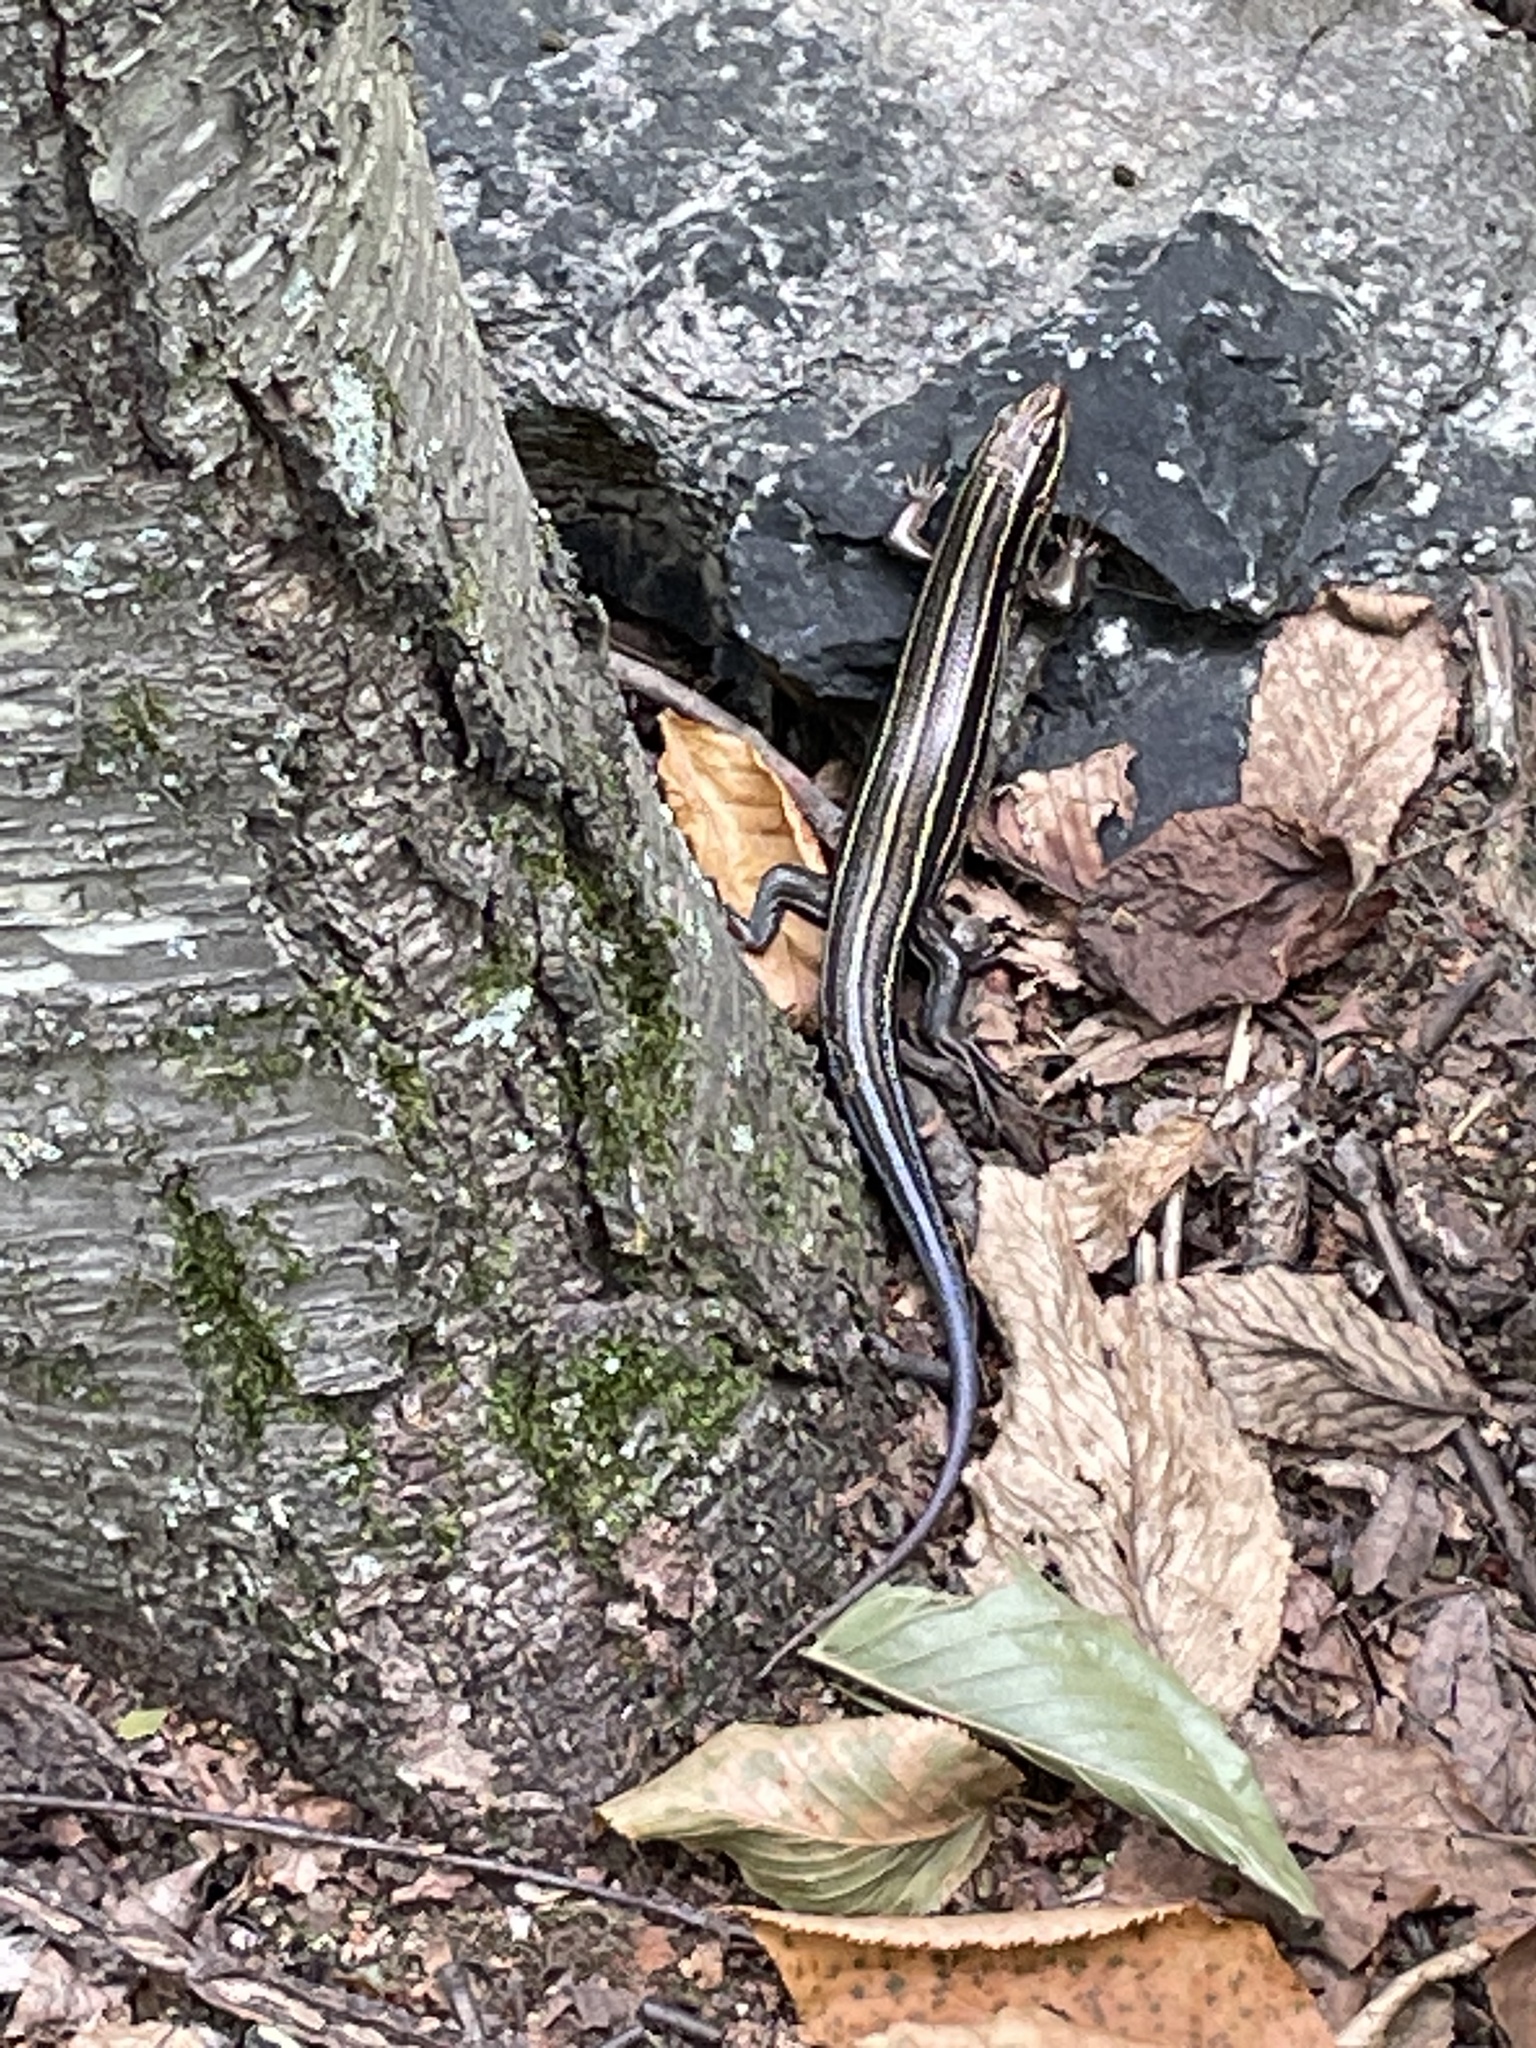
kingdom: Animalia
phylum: Chordata
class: Squamata
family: Scincidae
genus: Plestiodon
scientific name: Plestiodon laticeps
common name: Broadhead skink
